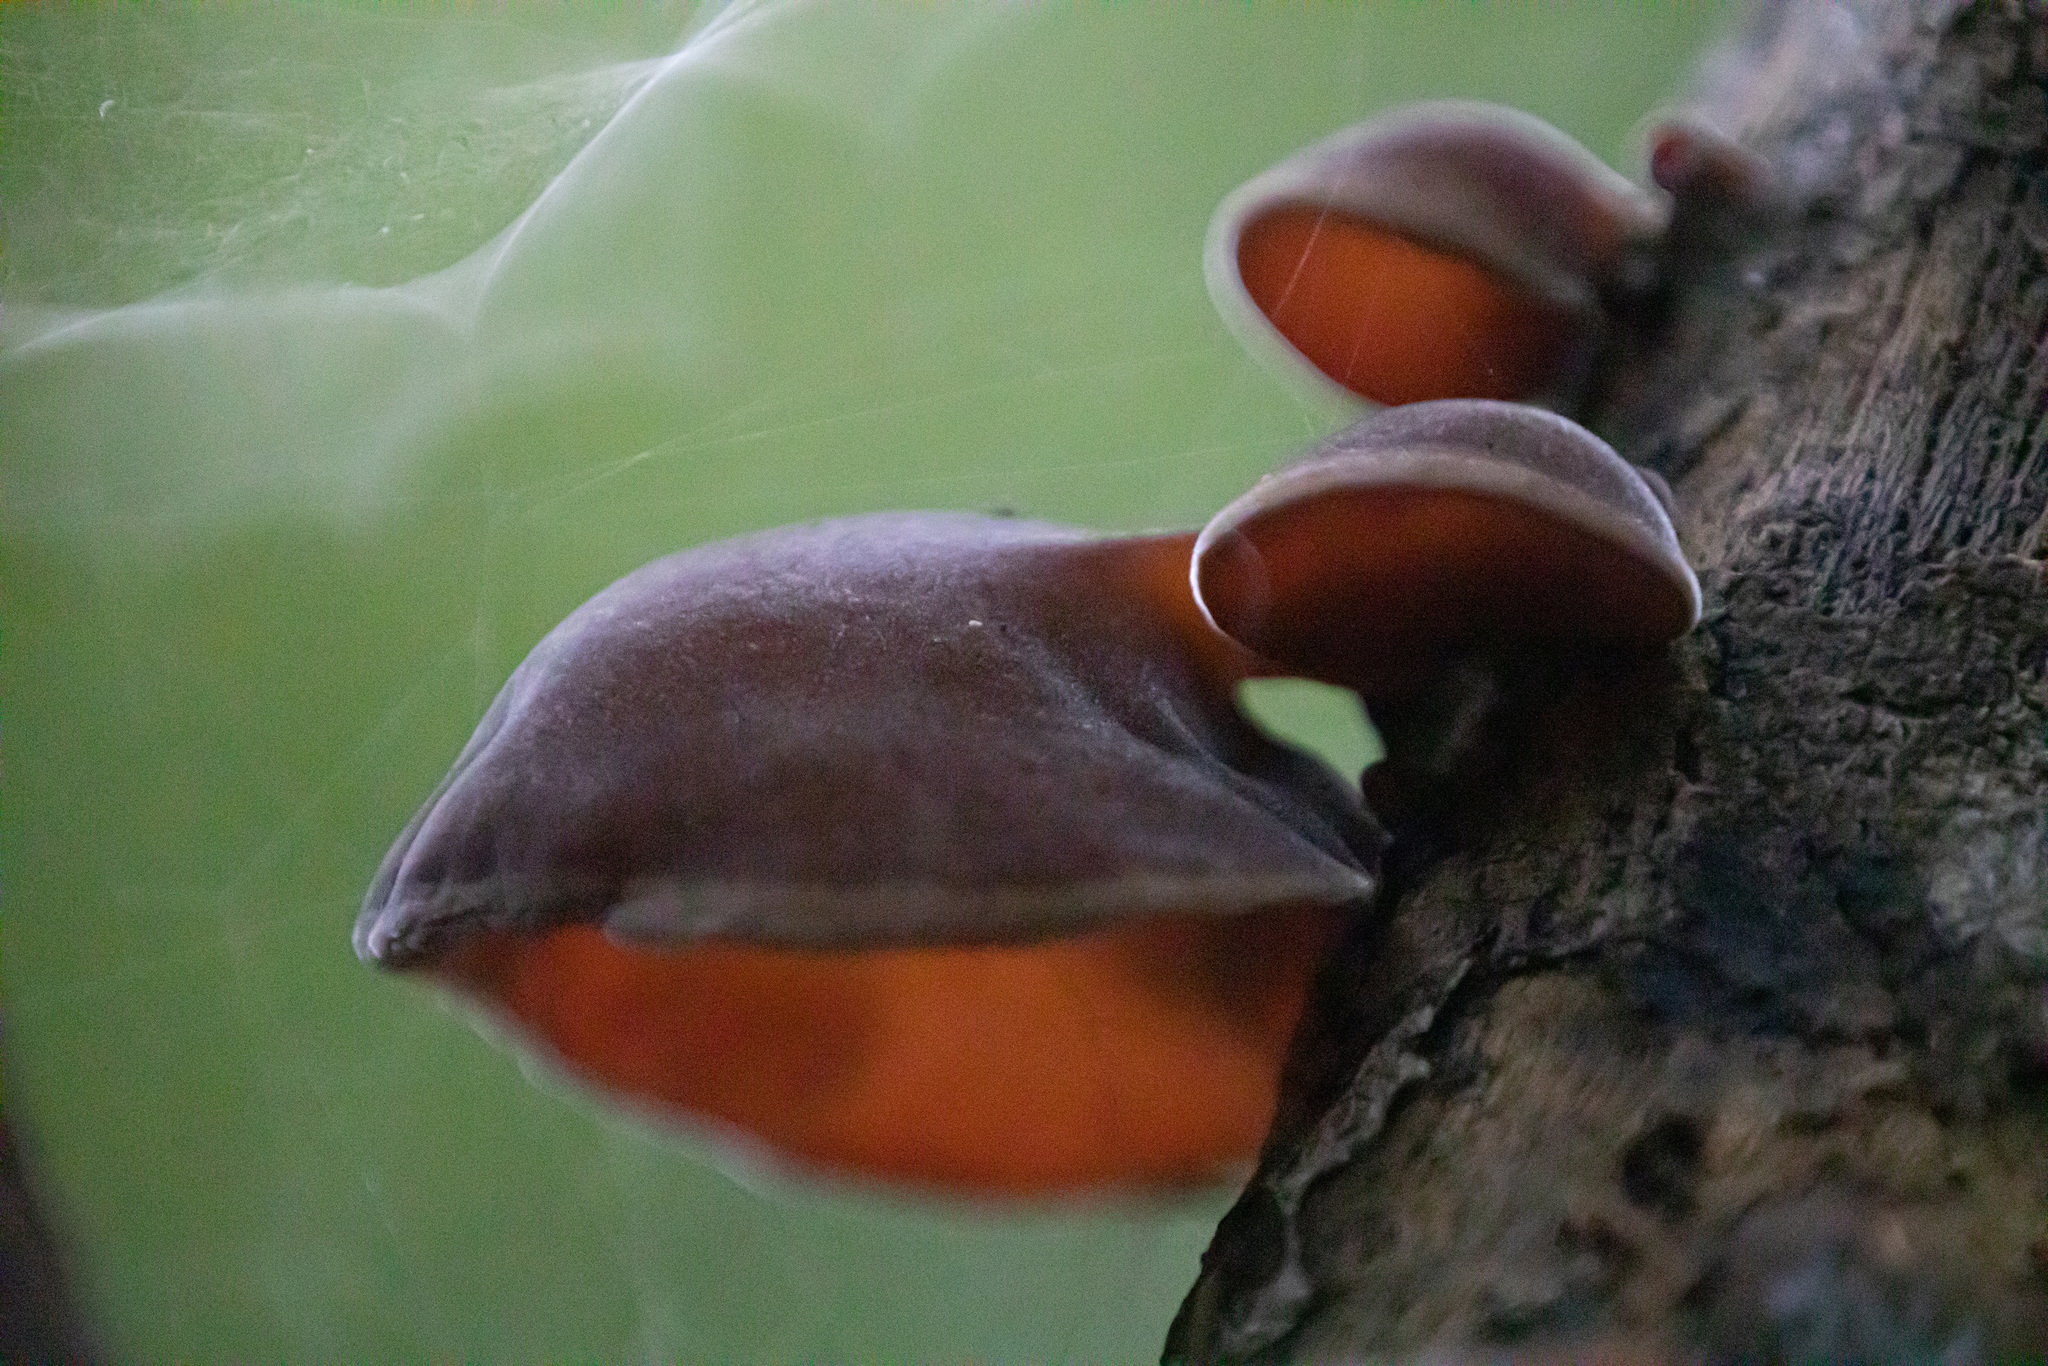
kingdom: Fungi
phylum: Basidiomycota
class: Agaricomycetes
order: Auriculariales
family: Auriculariaceae
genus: Auricularia
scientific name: Auricularia cornea
